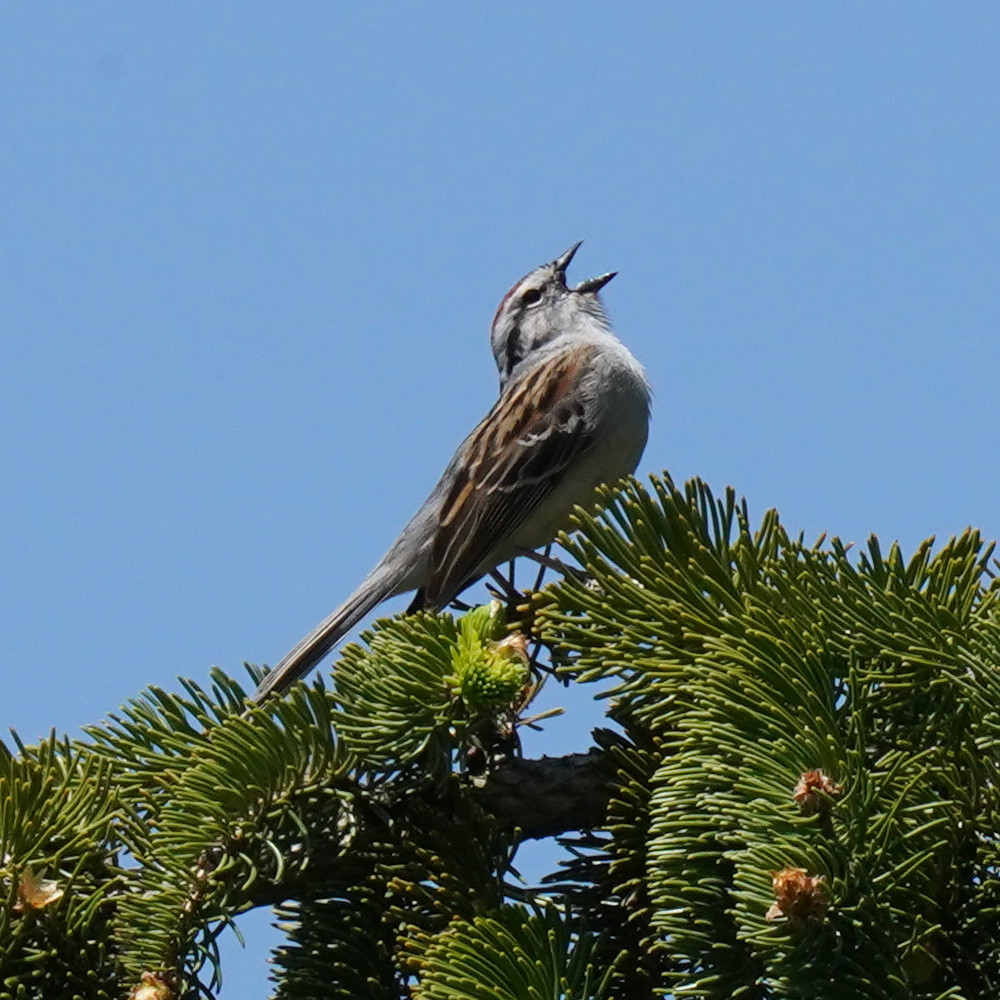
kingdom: Animalia
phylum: Chordata
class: Aves
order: Passeriformes
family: Passerellidae
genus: Spizella
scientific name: Spizella passerina
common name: Chipping sparrow
